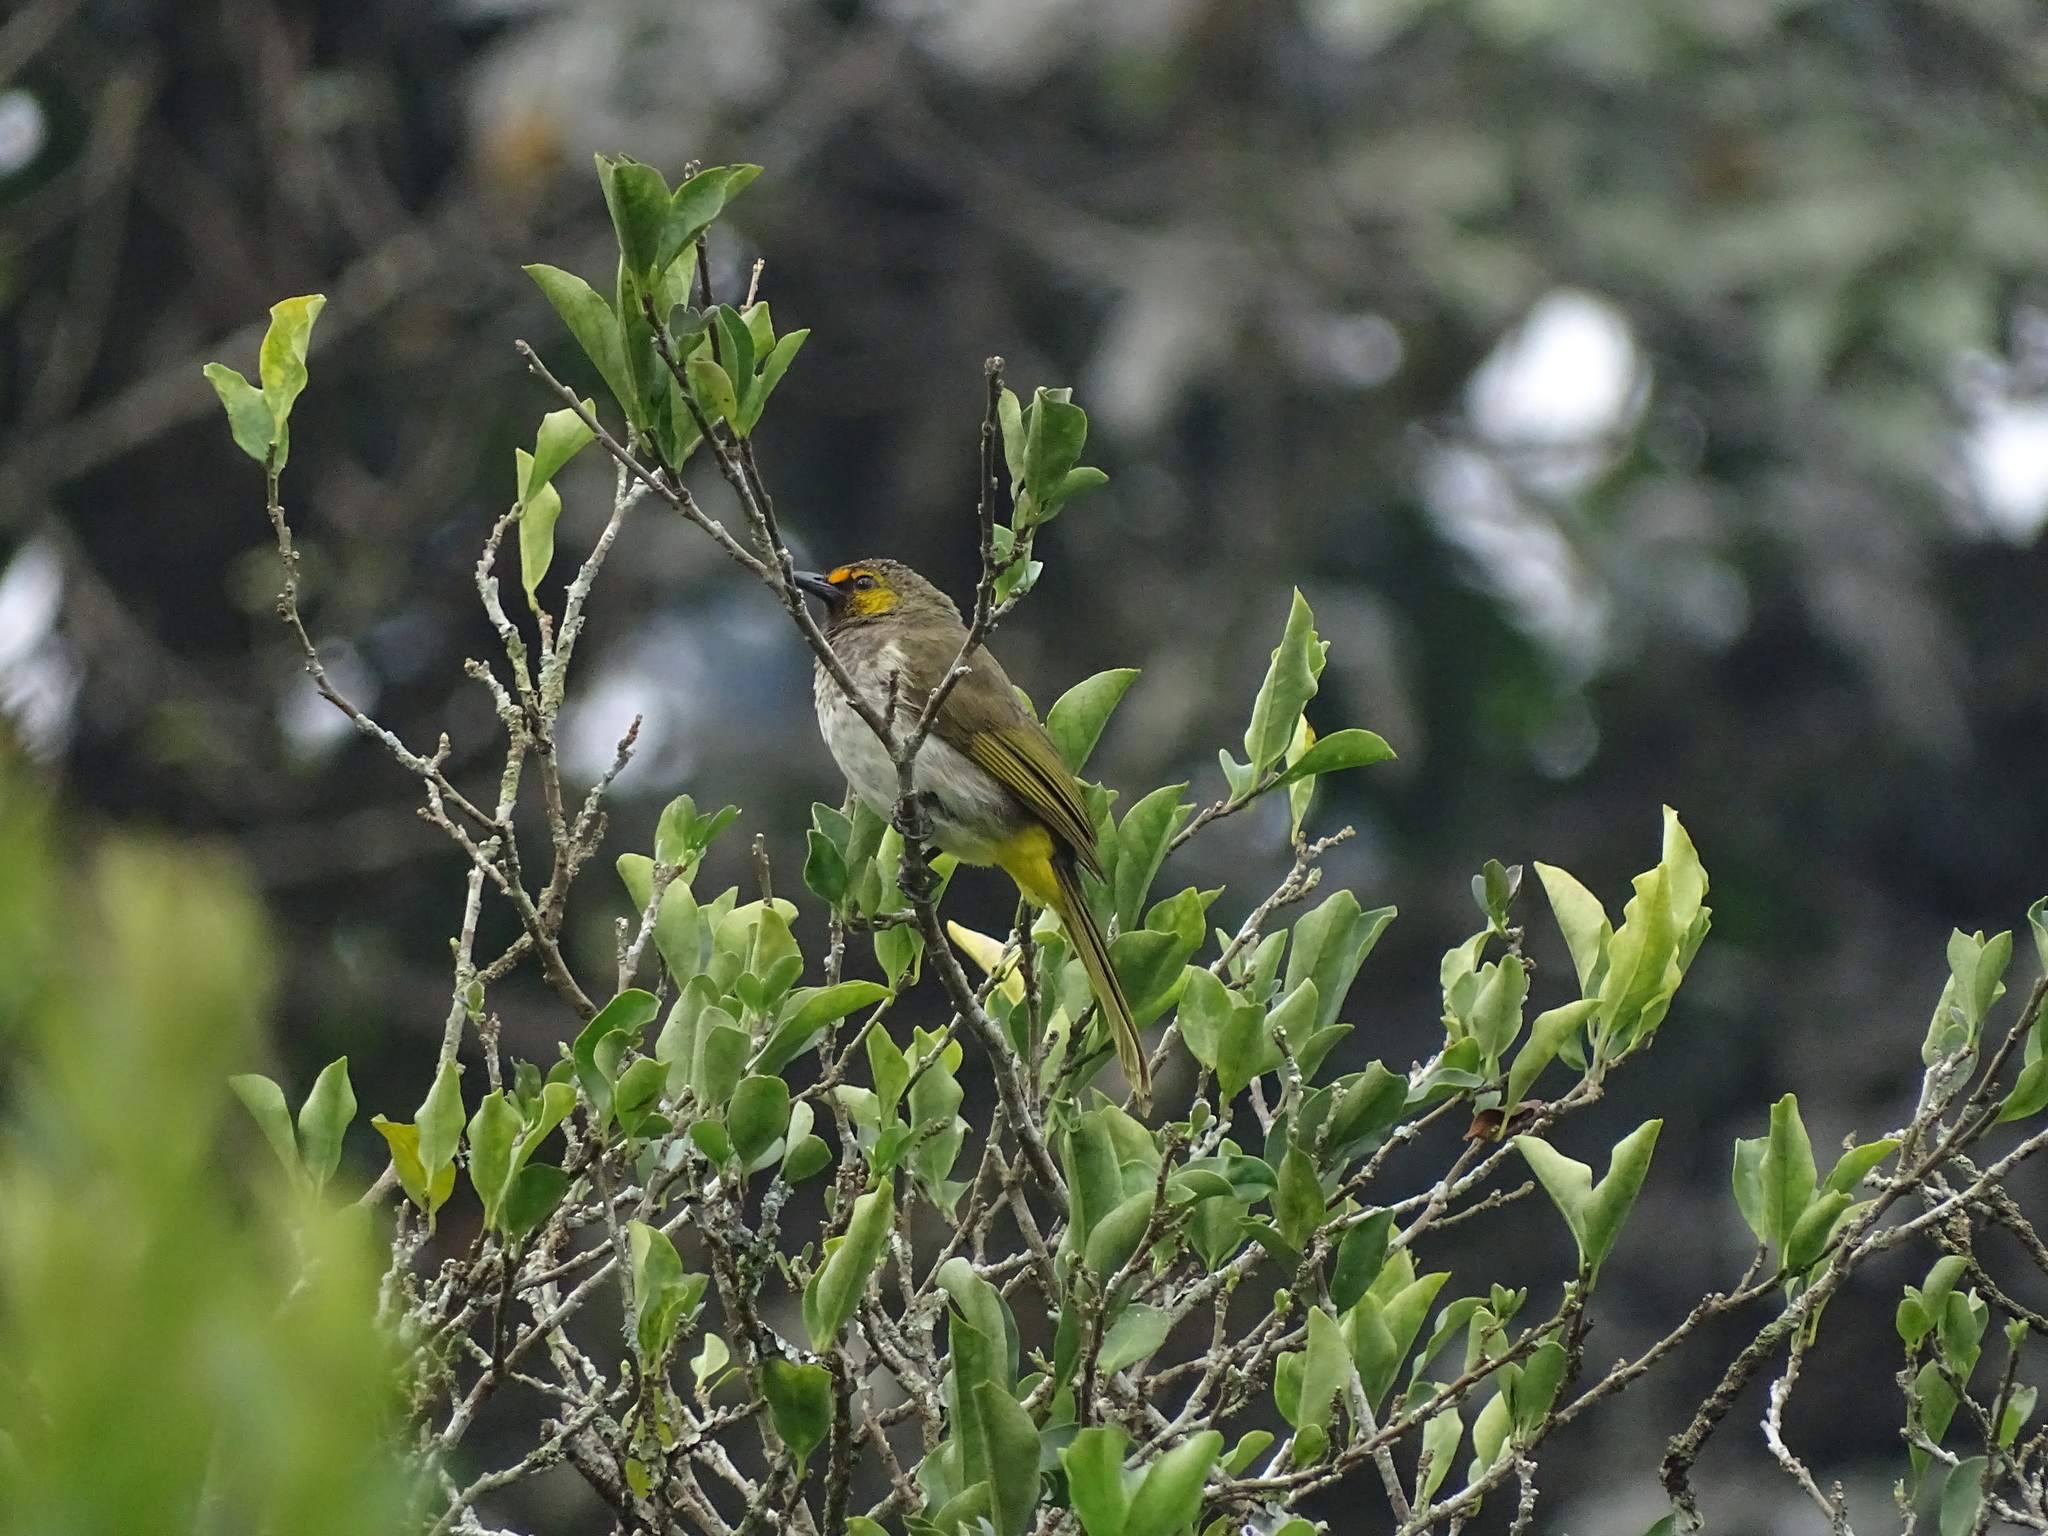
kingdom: Animalia
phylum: Chordata
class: Aves
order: Passeriformes
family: Pycnonotidae
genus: Pycnonotus
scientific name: Pycnonotus bimaculatus
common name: Orange-spotted bulbul
